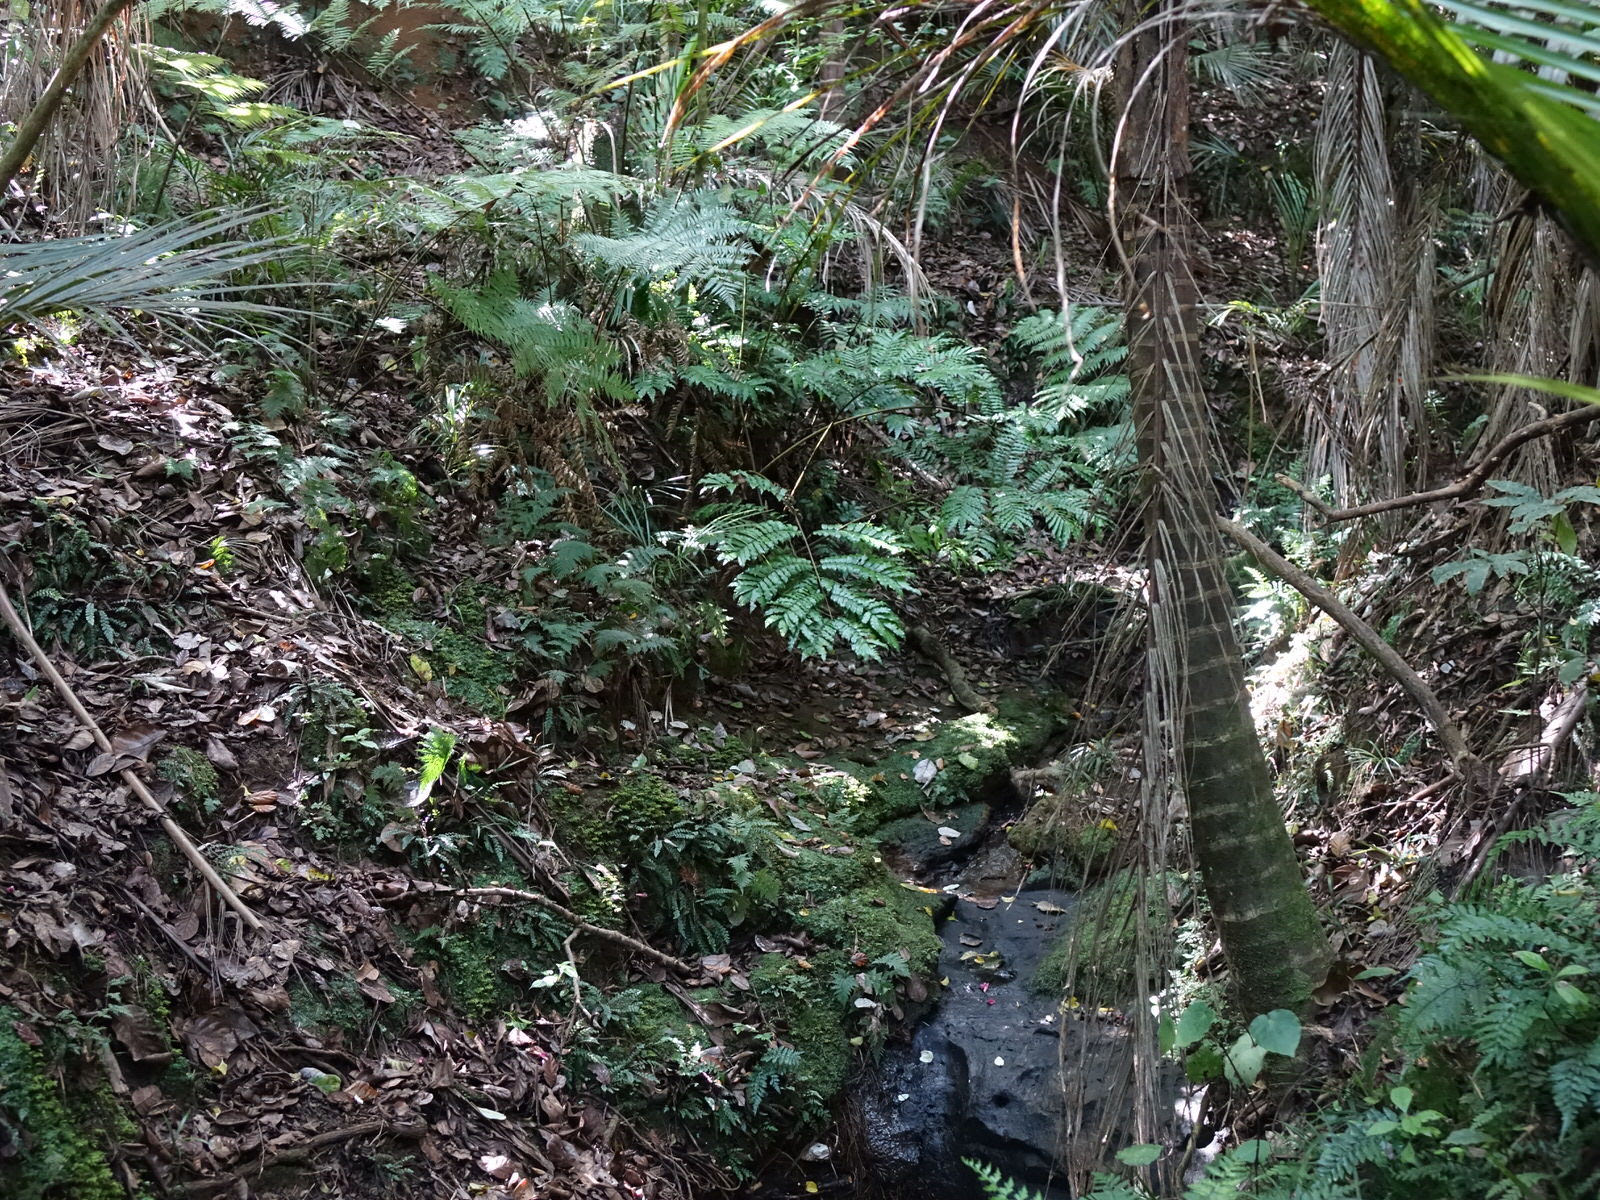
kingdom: Plantae
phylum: Tracheophyta
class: Polypodiopsida
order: Marattiales
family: Marattiaceae
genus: Ptisana
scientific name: Ptisana salicina
